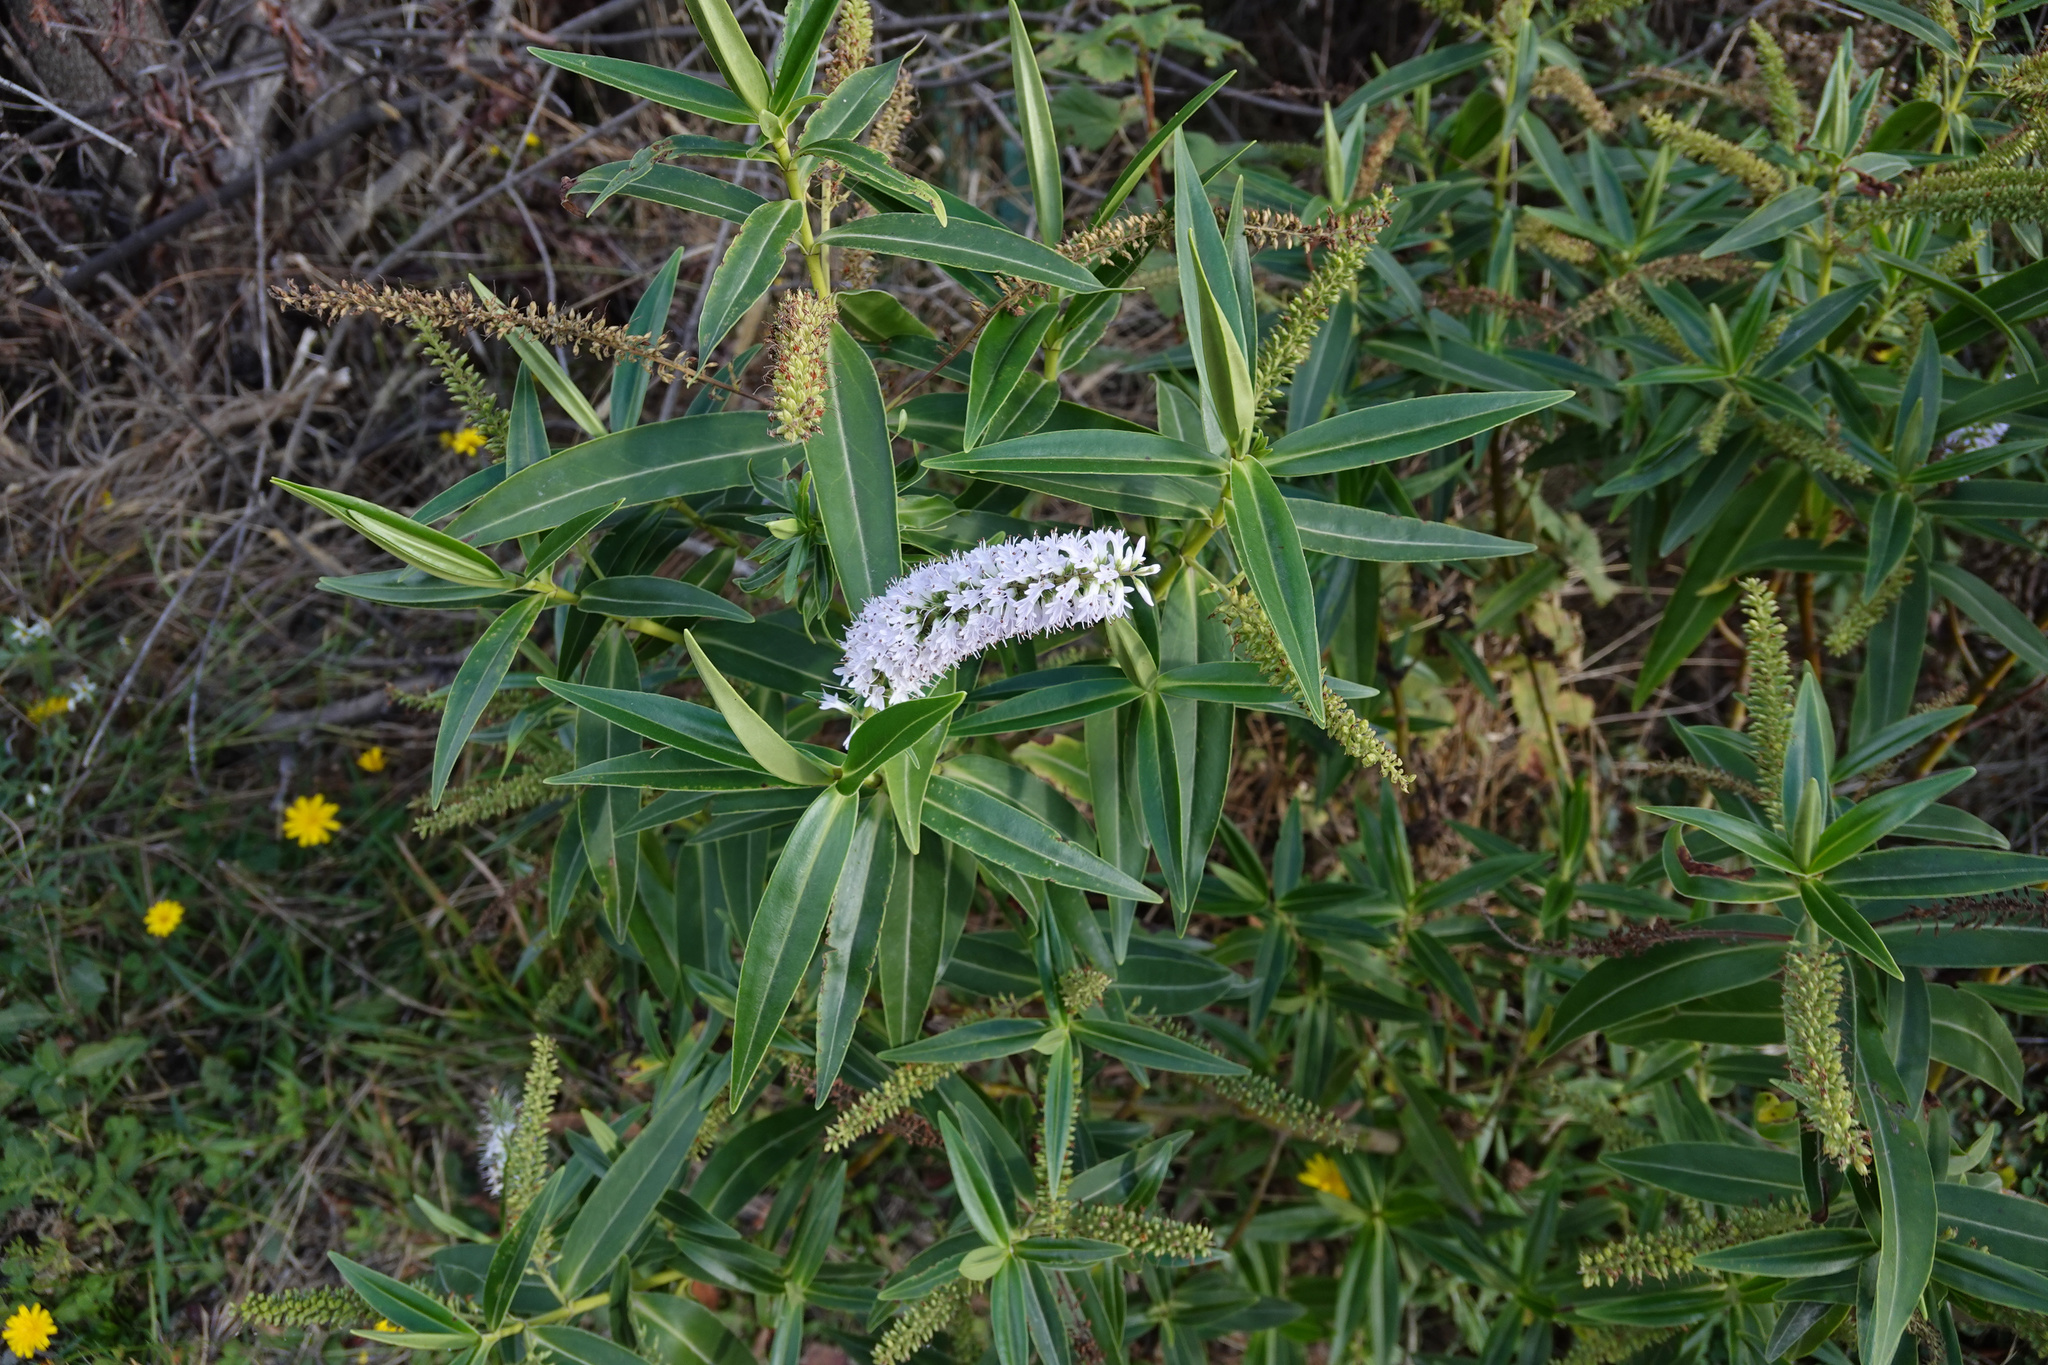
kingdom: Plantae
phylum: Tracheophyta
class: Magnoliopsida
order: Lamiales
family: Plantaginaceae
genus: Veronica
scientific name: Veronica salicifolia
